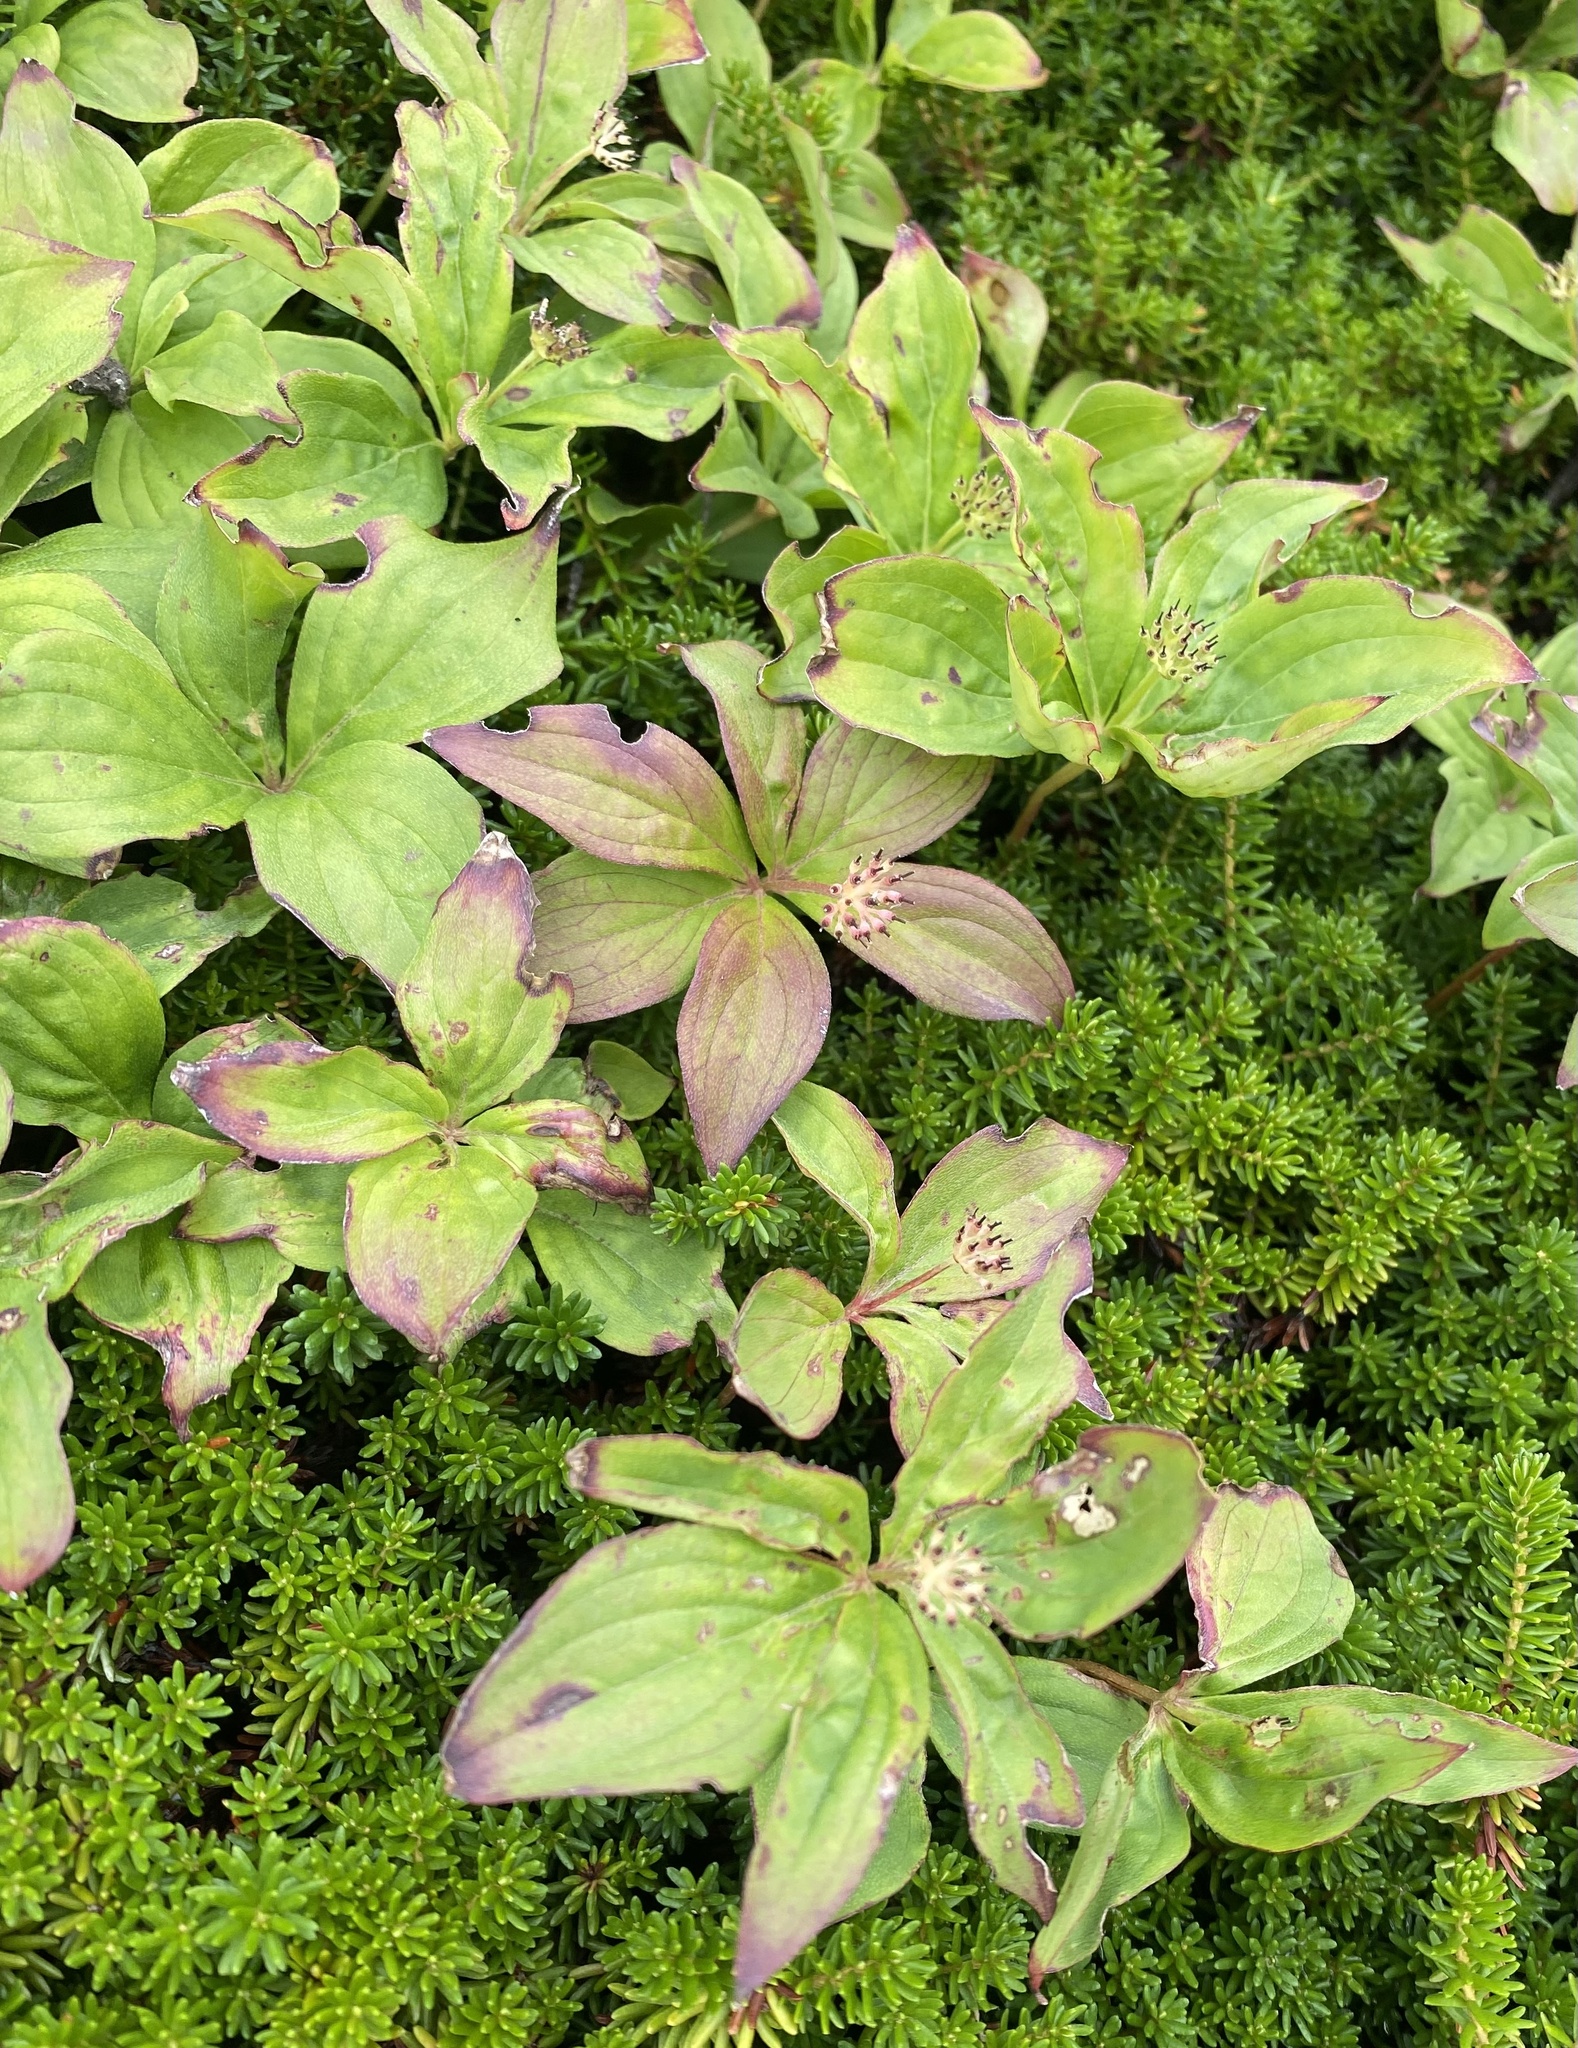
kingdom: Plantae
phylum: Tracheophyta
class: Magnoliopsida
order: Cornales
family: Cornaceae
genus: Cornus
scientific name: Cornus canadensis
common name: Creeping dogwood
